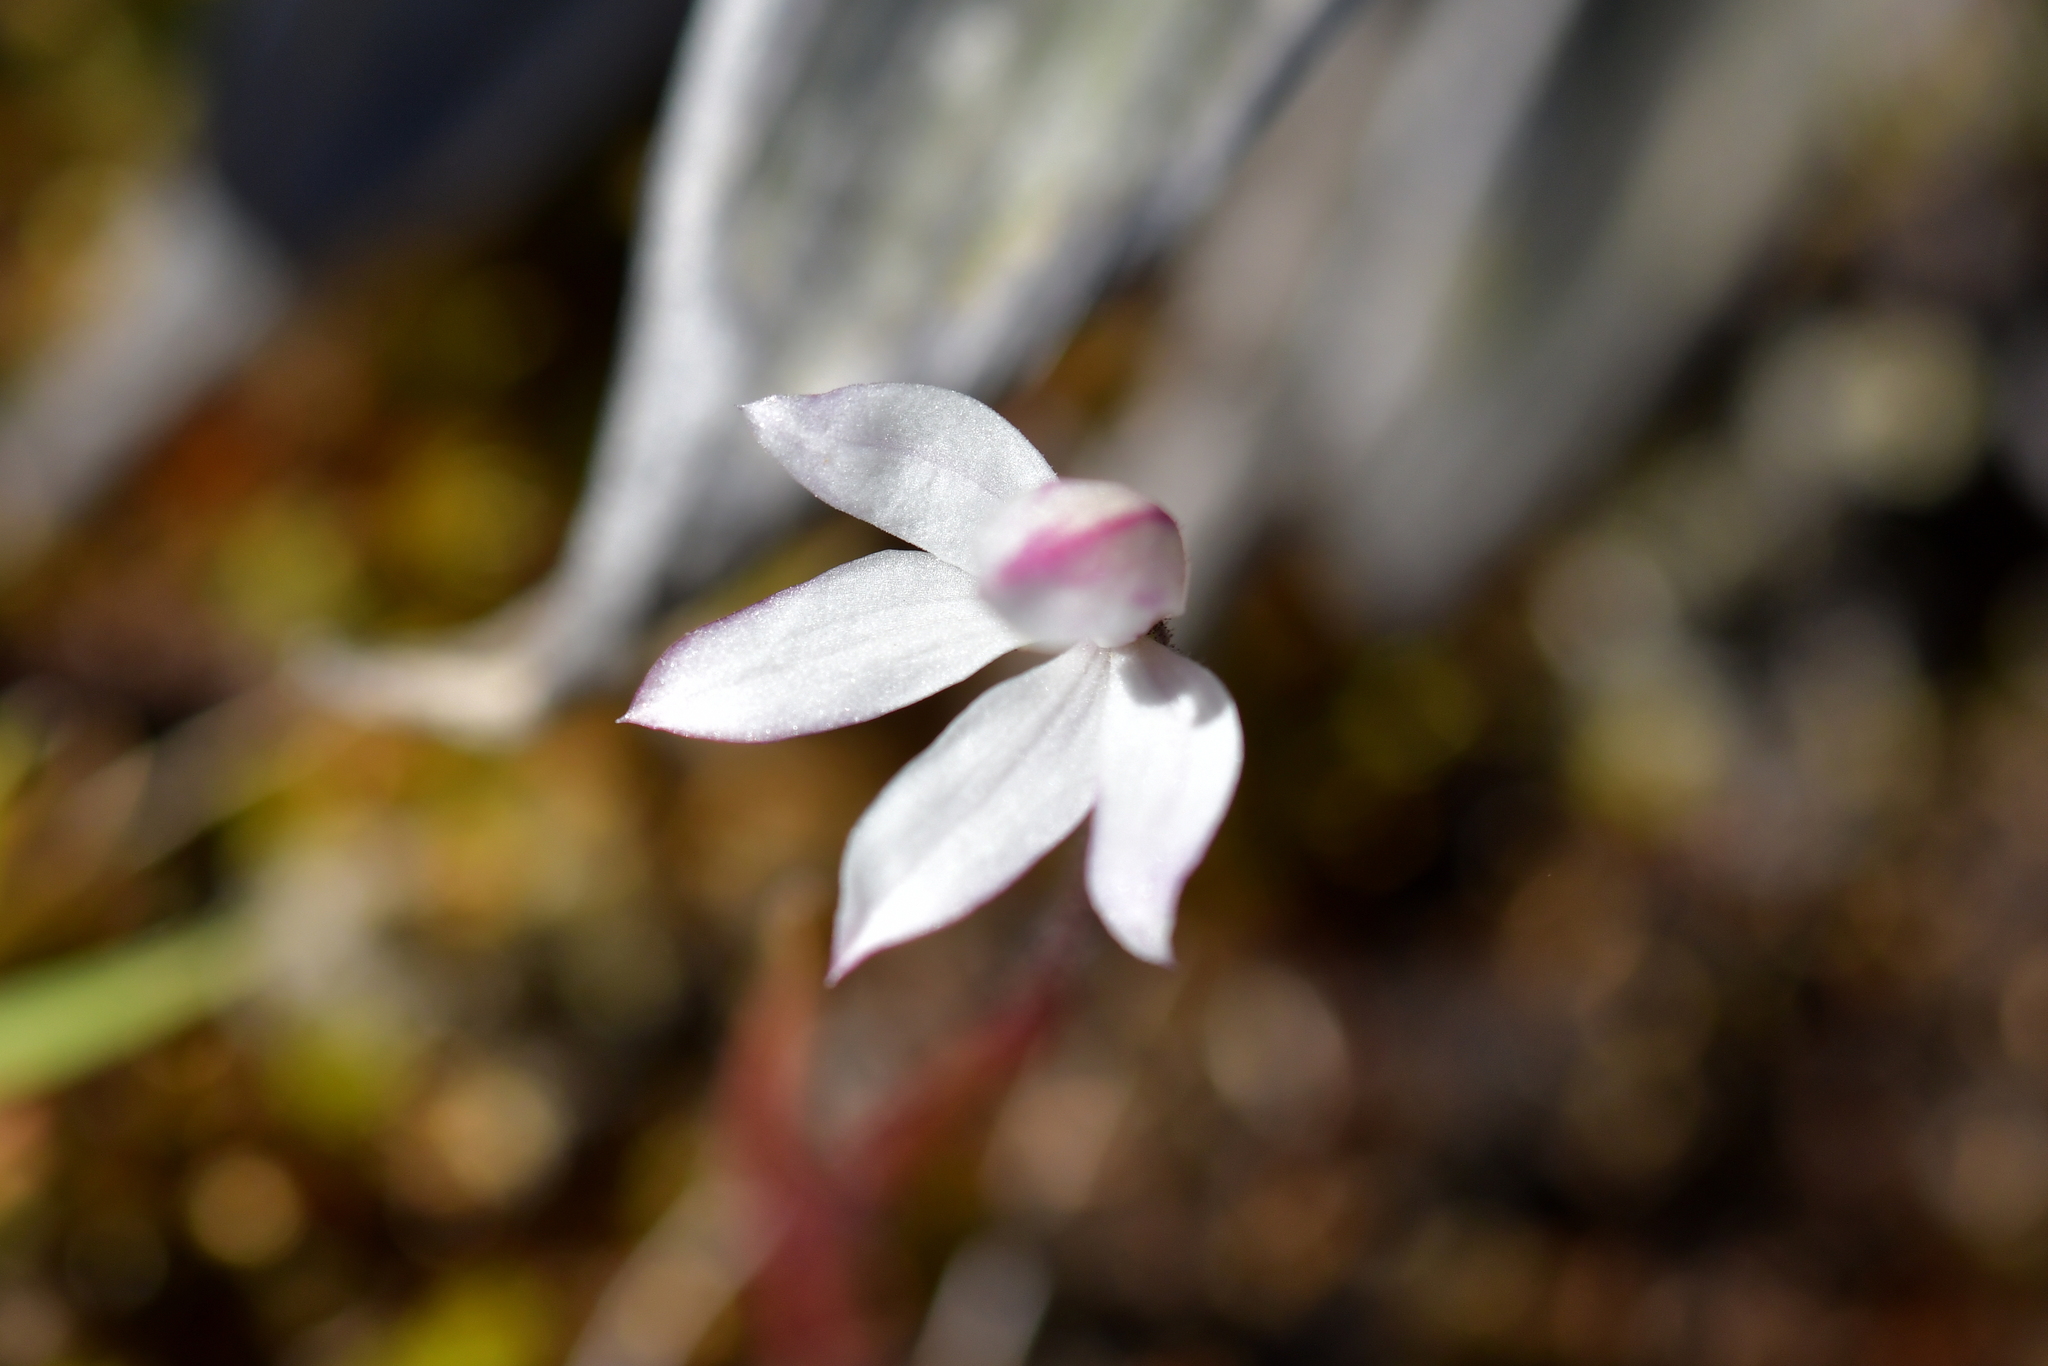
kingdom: Plantae
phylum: Tracheophyta
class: Liliopsida
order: Asparagales
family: Orchidaceae
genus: Caladenia
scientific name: Caladenia lyallii
